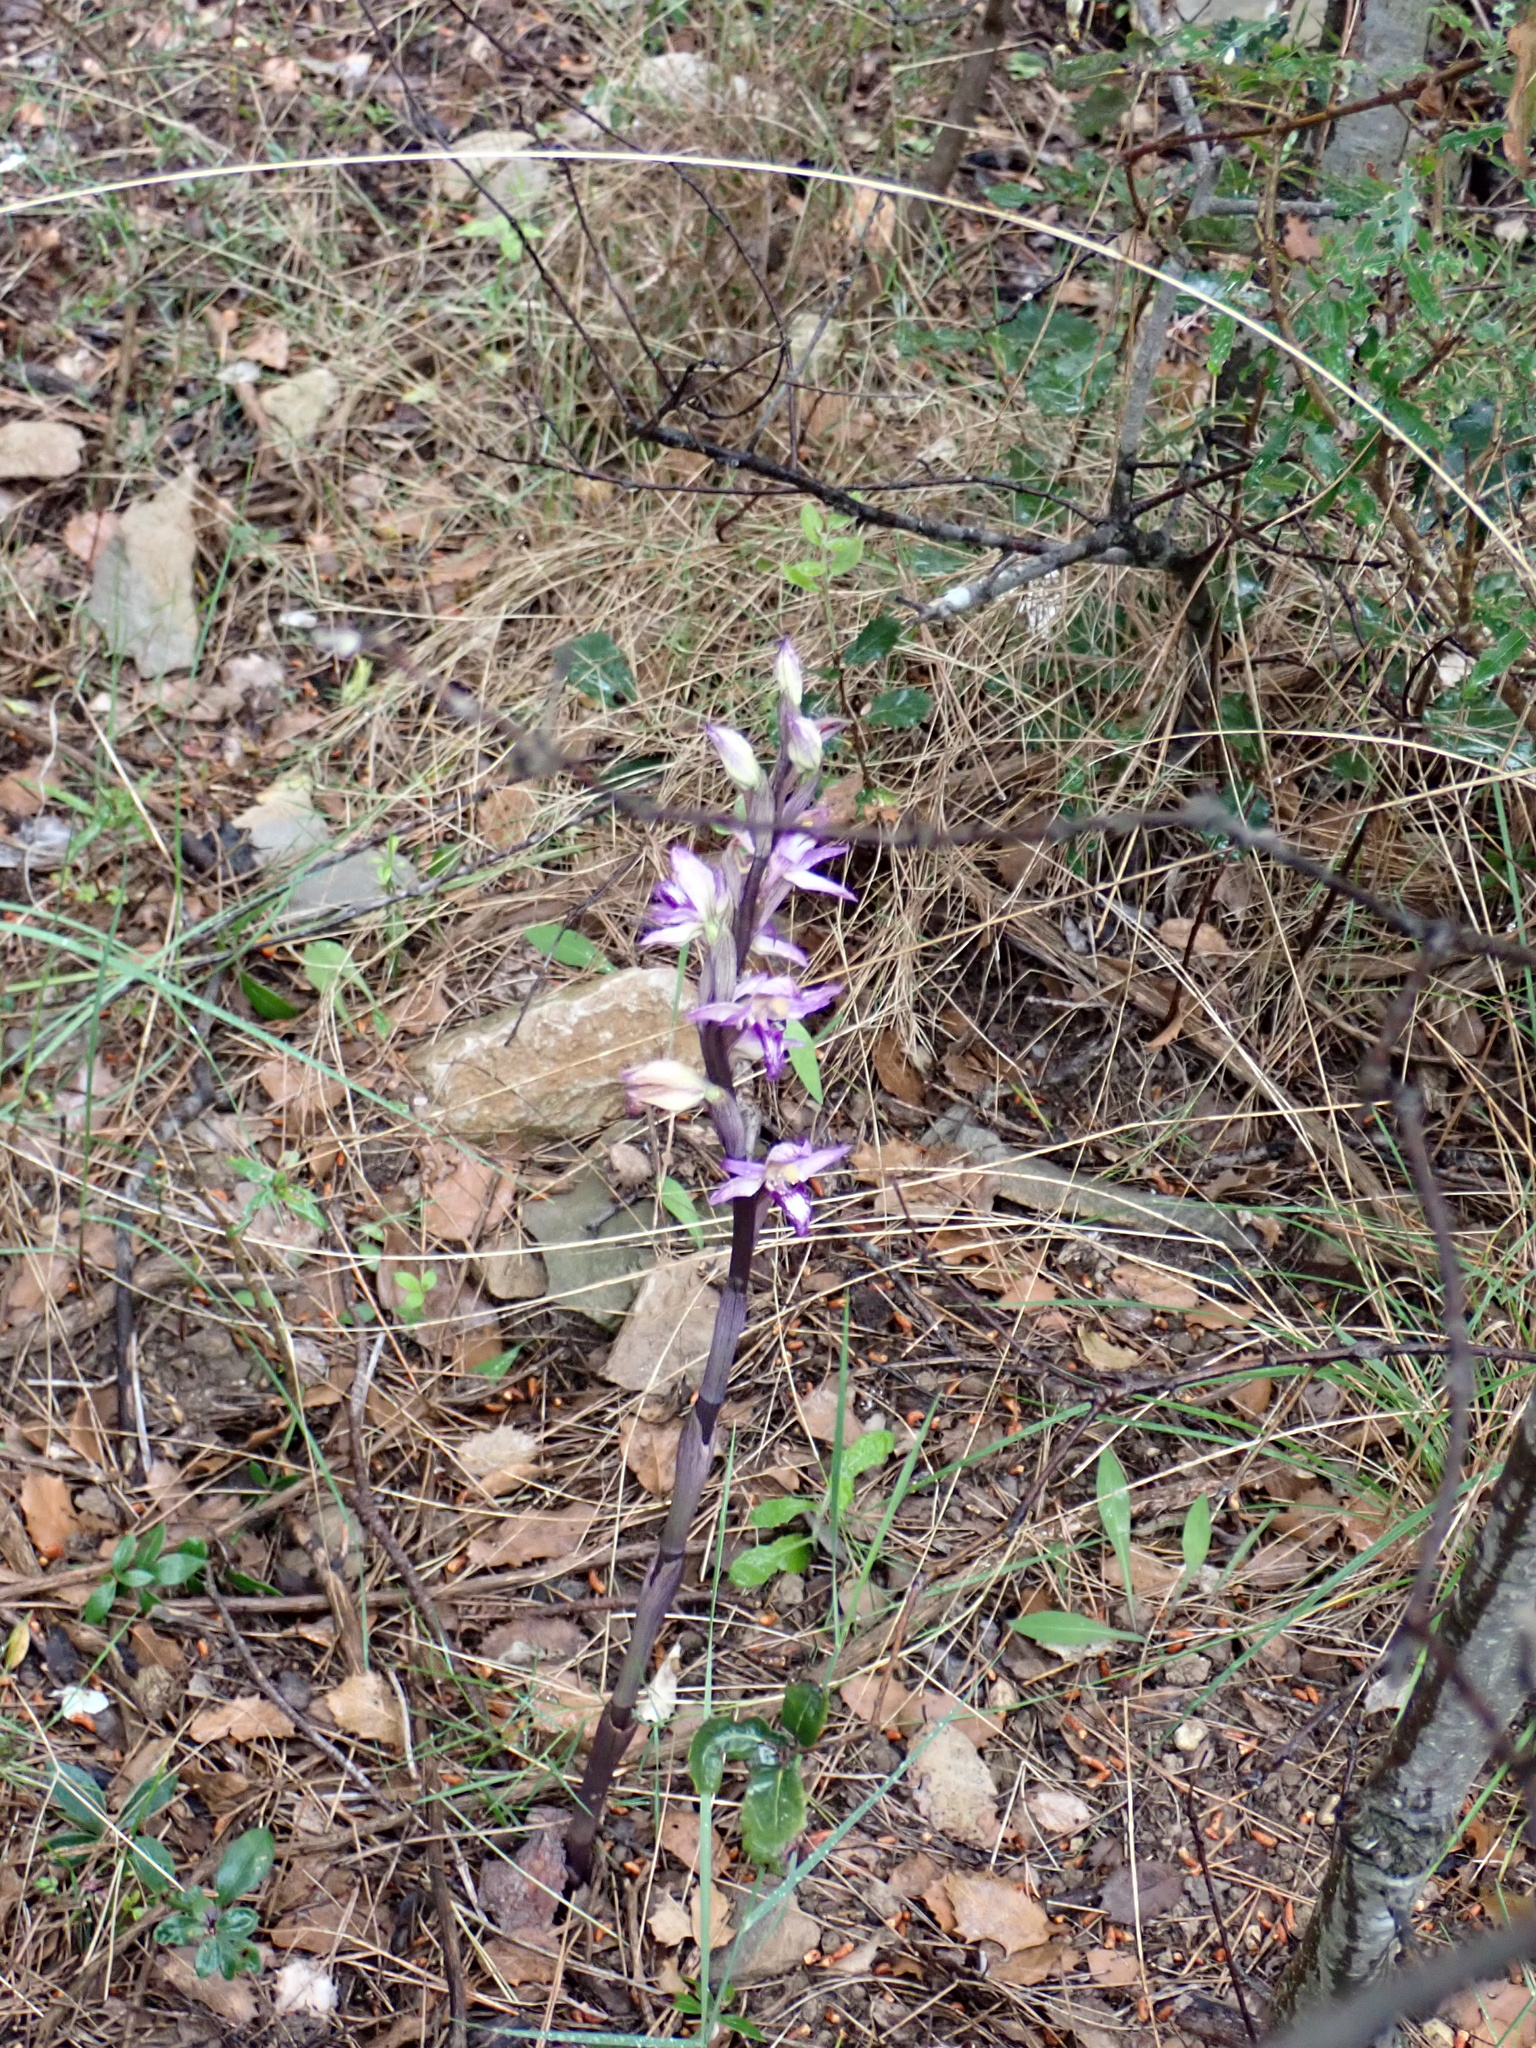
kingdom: Plantae
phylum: Tracheophyta
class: Liliopsida
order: Asparagales
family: Orchidaceae
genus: Limodorum
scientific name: Limodorum abortivum
